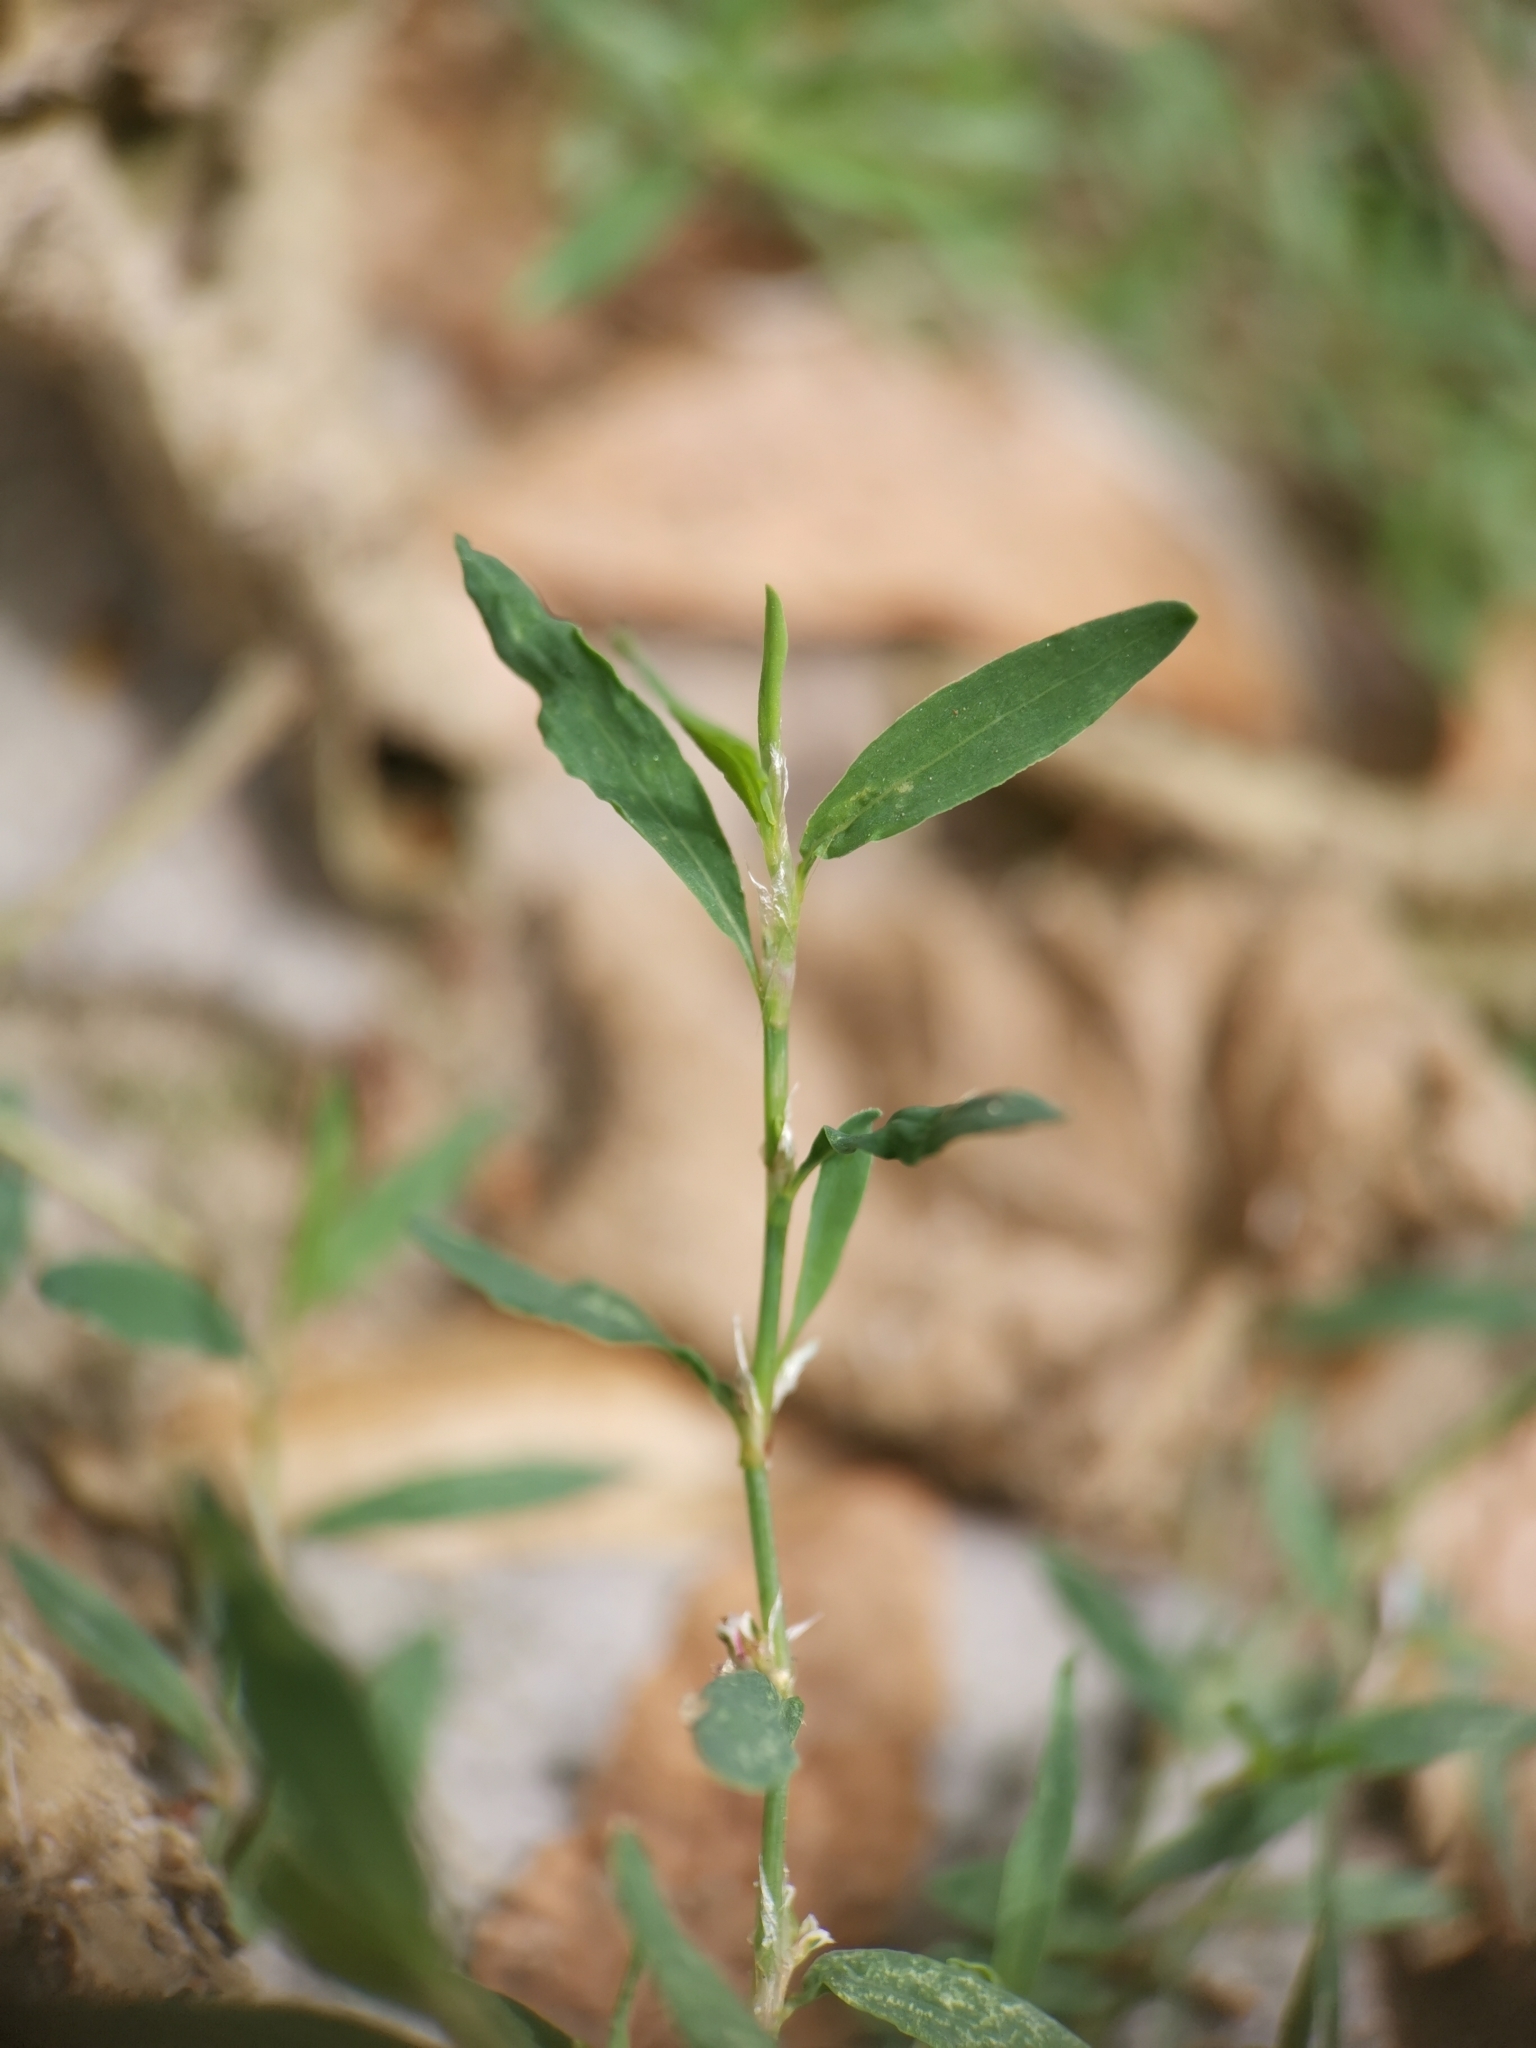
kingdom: Plantae
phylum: Tracheophyta
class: Magnoliopsida
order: Caryophyllales
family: Polygonaceae
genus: Polygonum
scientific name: Polygonum aviculare
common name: Prostrate knotweed
